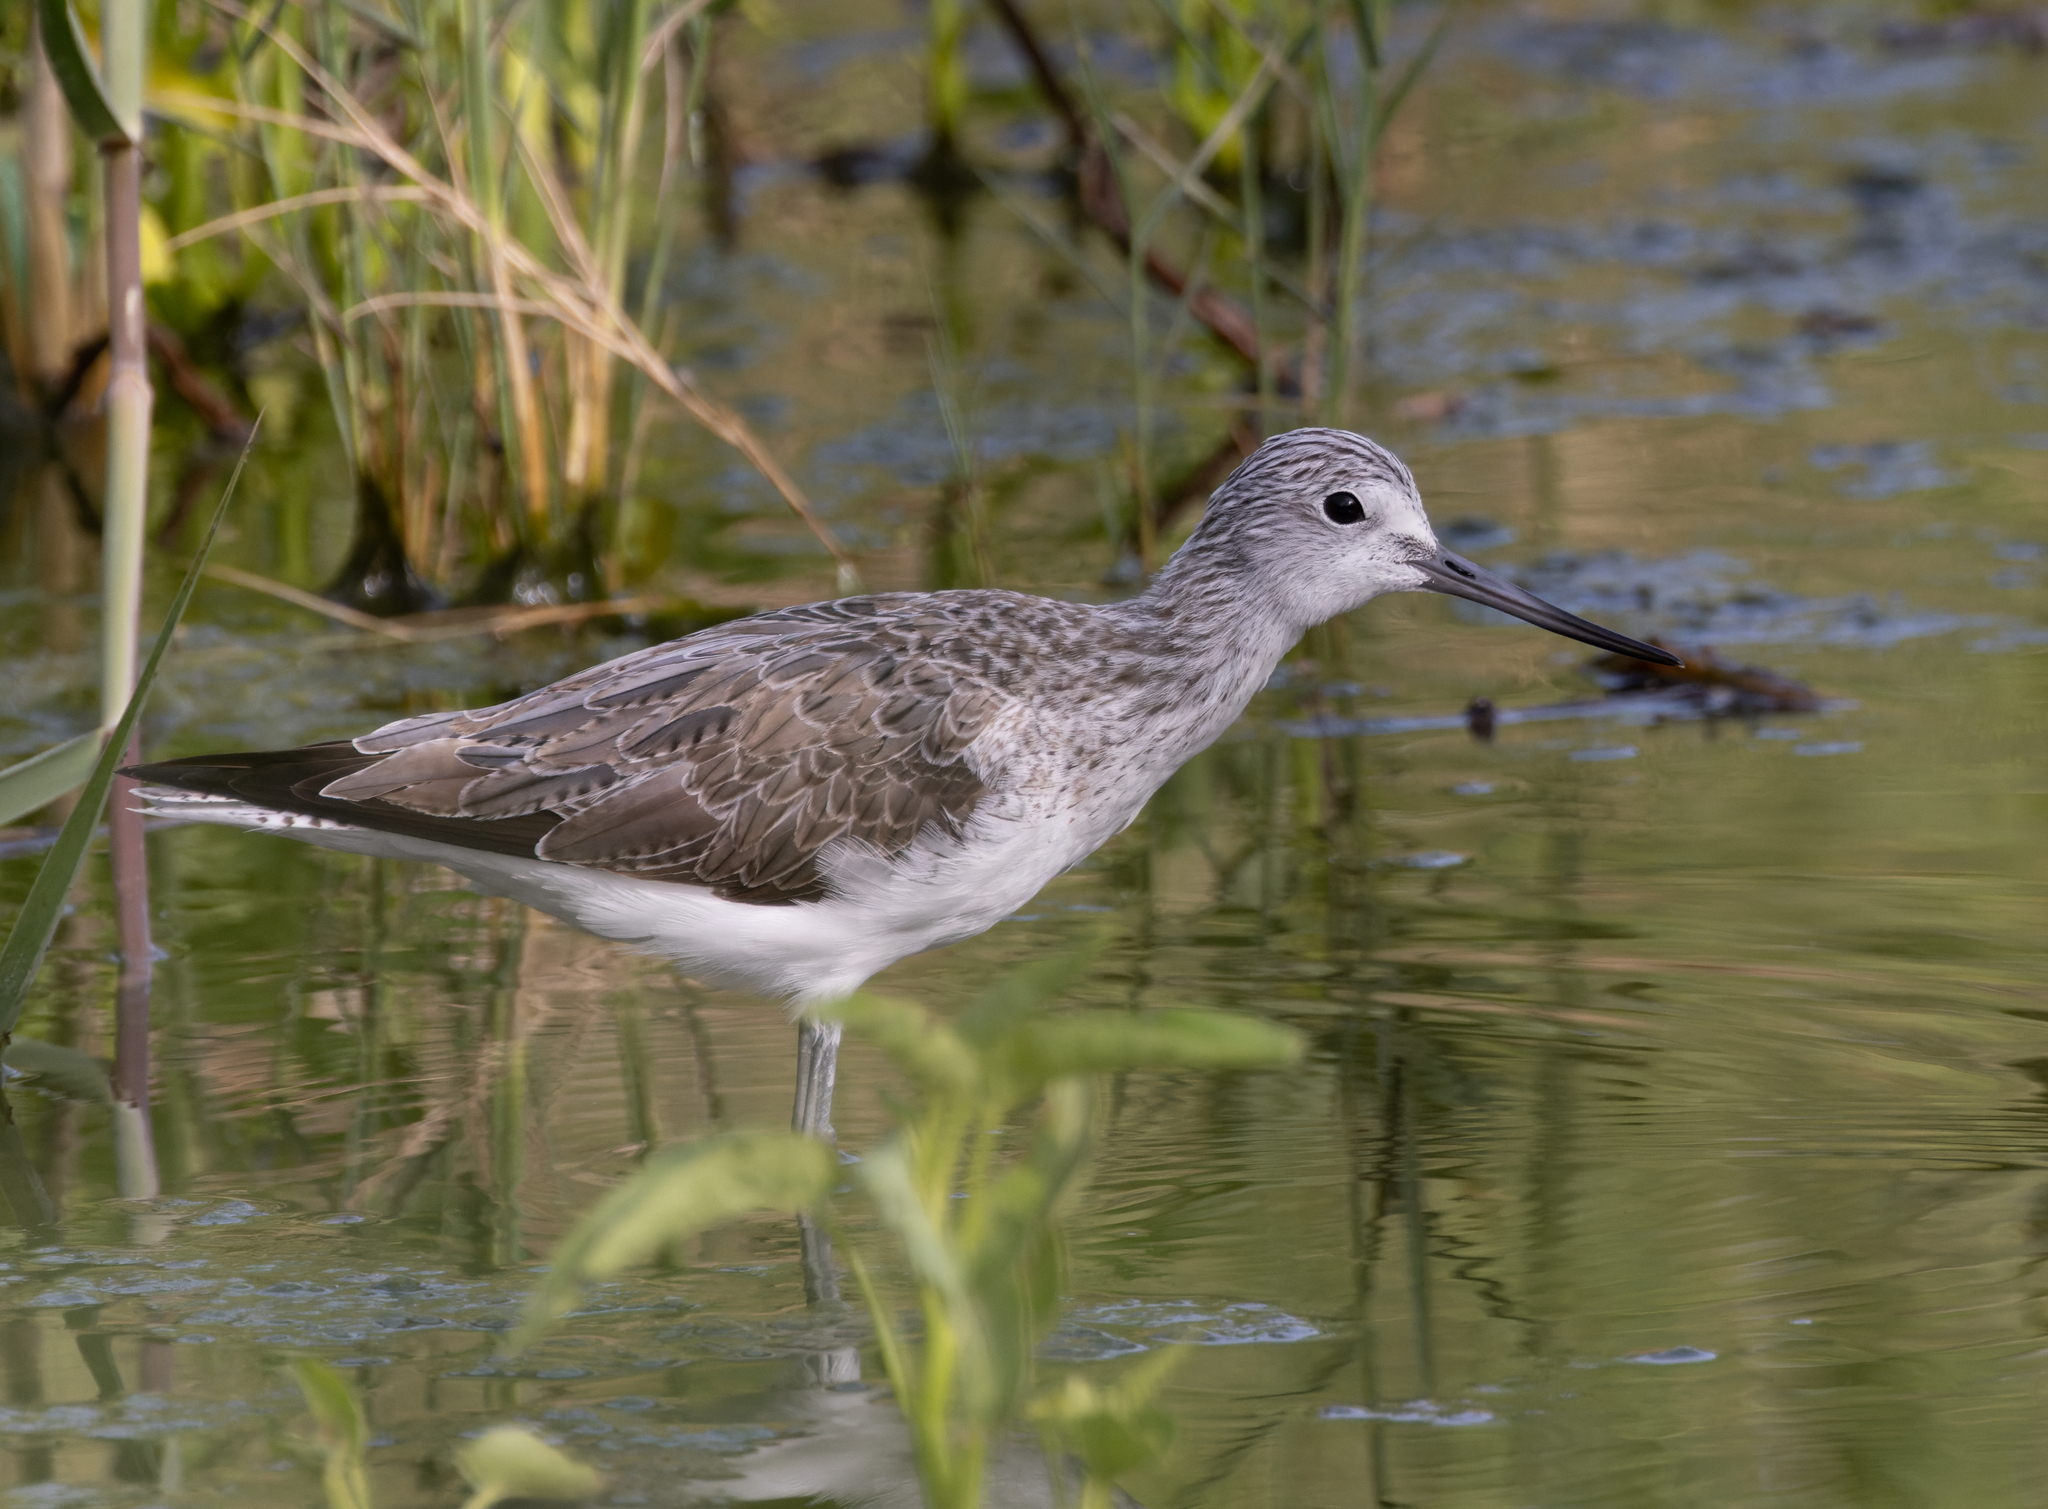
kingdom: Animalia
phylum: Chordata
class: Aves
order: Charadriiformes
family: Scolopacidae
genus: Tringa
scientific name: Tringa nebularia
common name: Common greenshank
